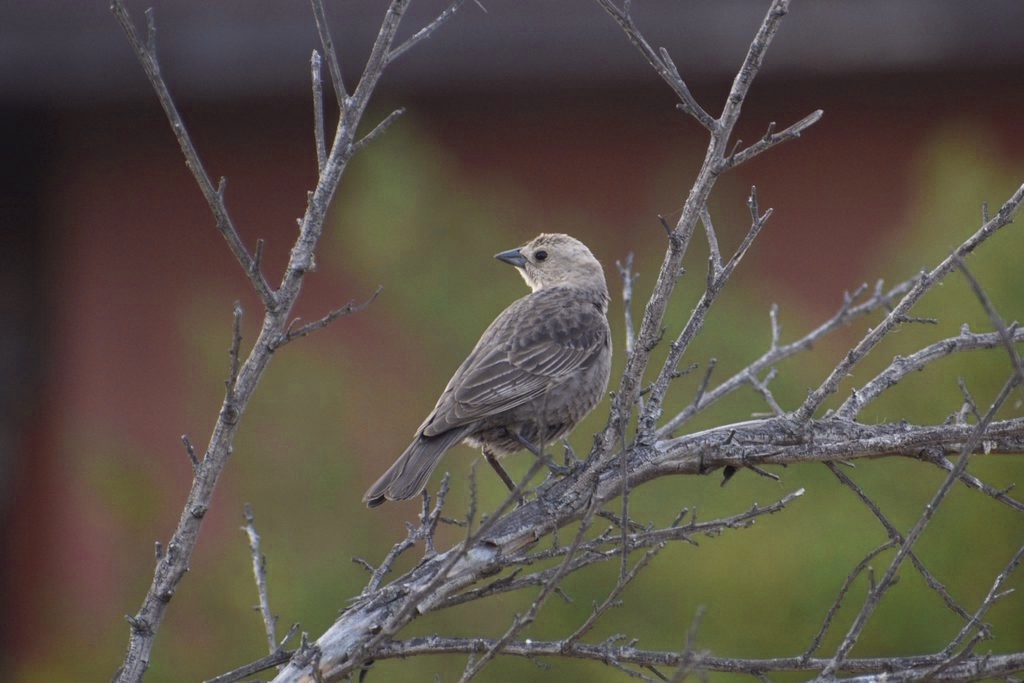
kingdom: Animalia
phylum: Chordata
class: Aves
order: Passeriformes
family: Icteridae
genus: Molothrus
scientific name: Molothrus ater
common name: Brown-headed cowbird
